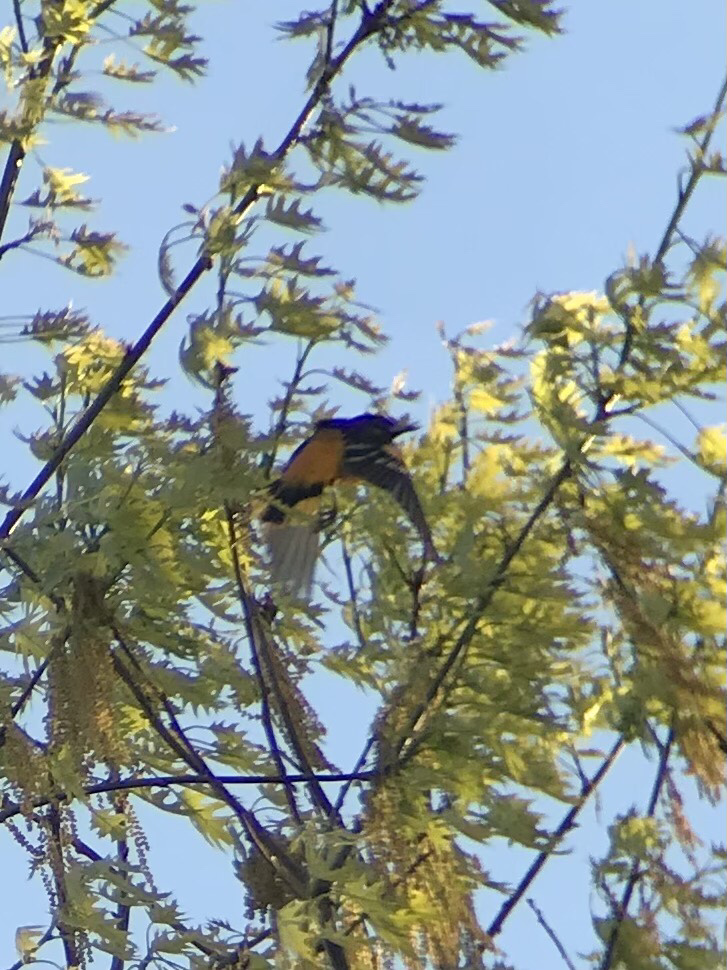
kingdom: Animalia
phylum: Chordata
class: Aves
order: Passeriformes
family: Icteridae
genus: Icterus
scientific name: Icterus galbula
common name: Baltimore oriole
